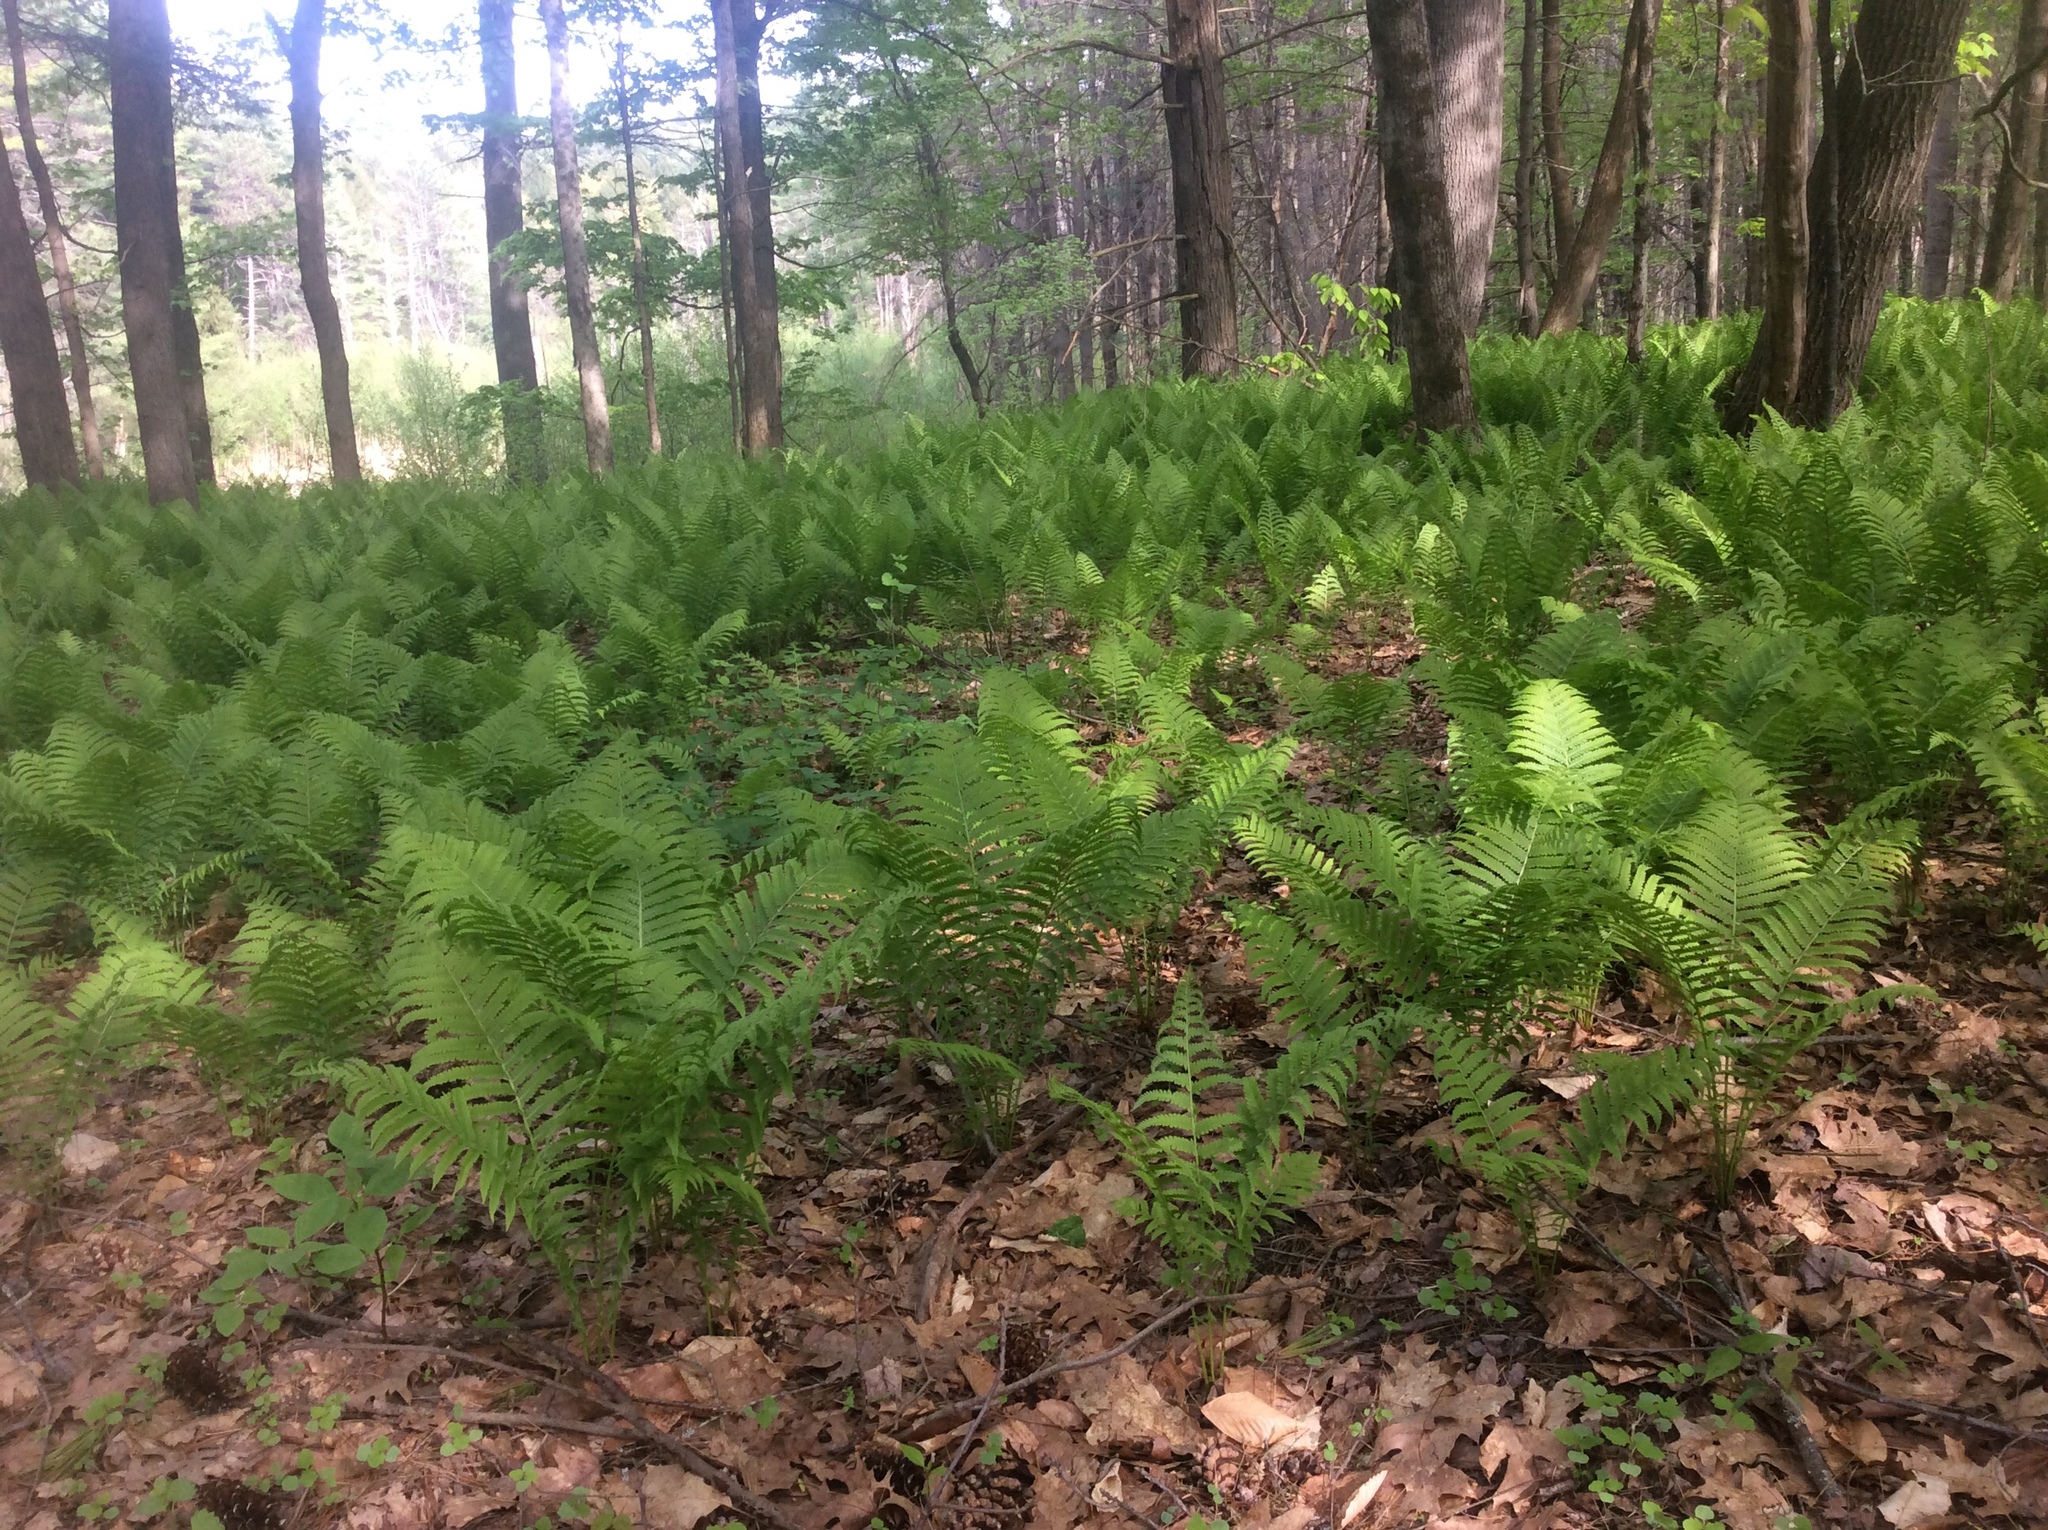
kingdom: Plantae
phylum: Tracheophyta
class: Polypodiopsida
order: Polypodiales
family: Onocleaceae
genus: Matteuccia
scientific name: Matteuccia struthiopteris
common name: Ostrich fern
